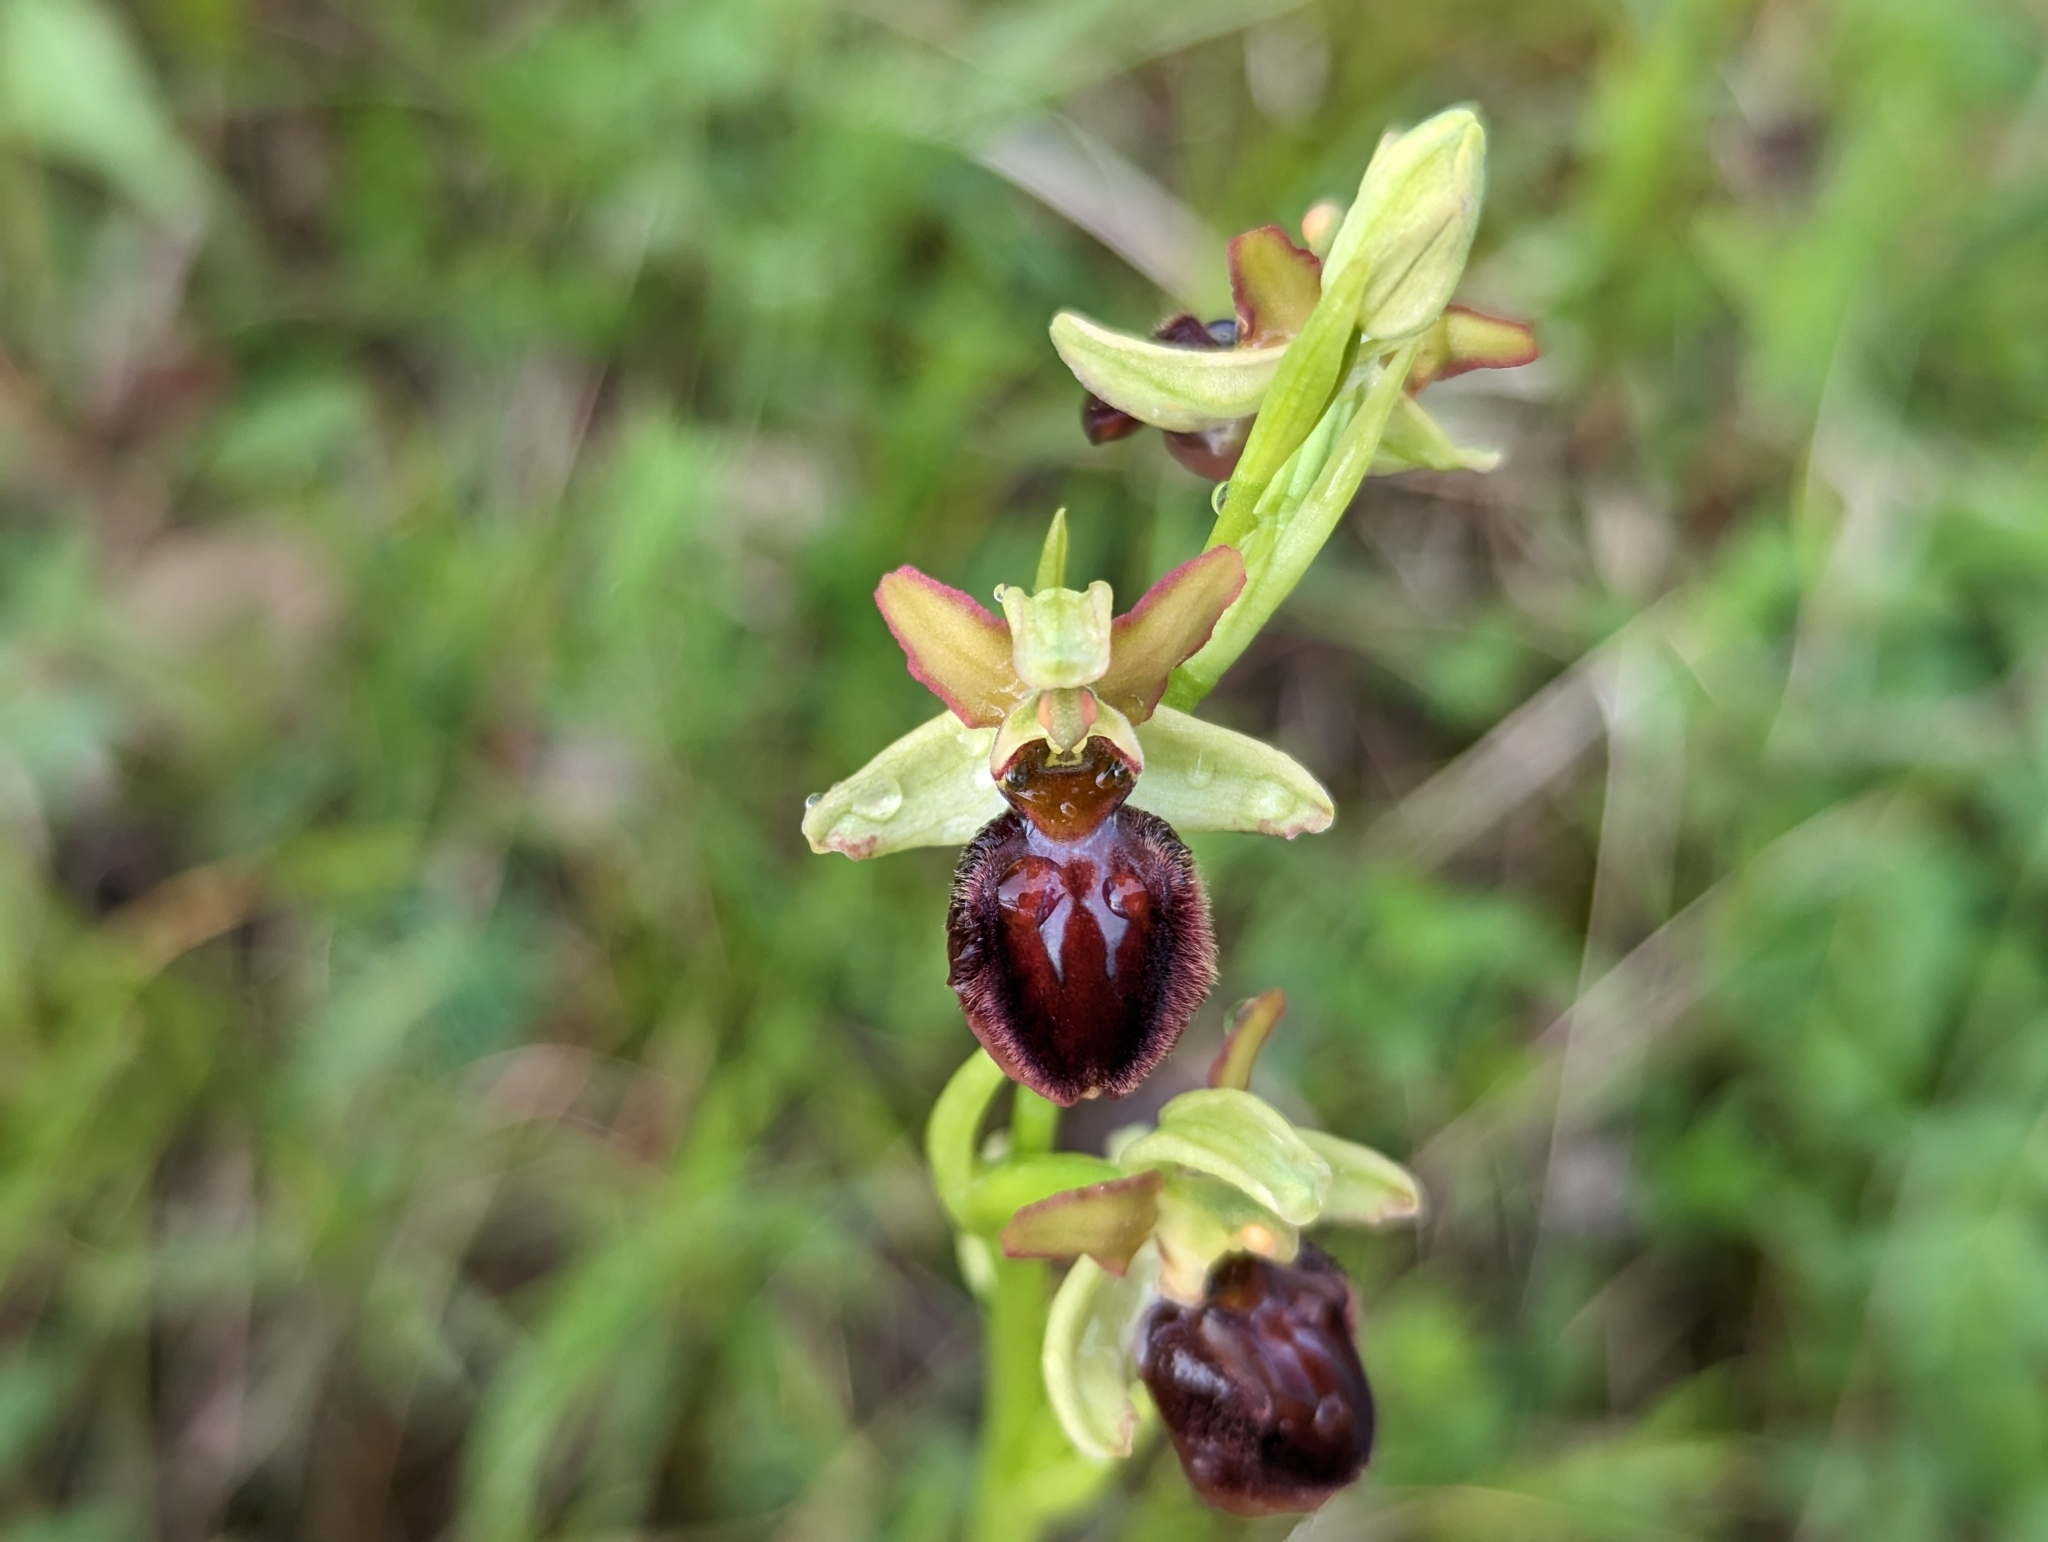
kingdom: Plantae
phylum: Tracheophyta
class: Liliopsida
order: Asparagales
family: Orchidaceae
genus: Ophrys
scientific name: Ophrys sphegodes
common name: Early spider-orchid
